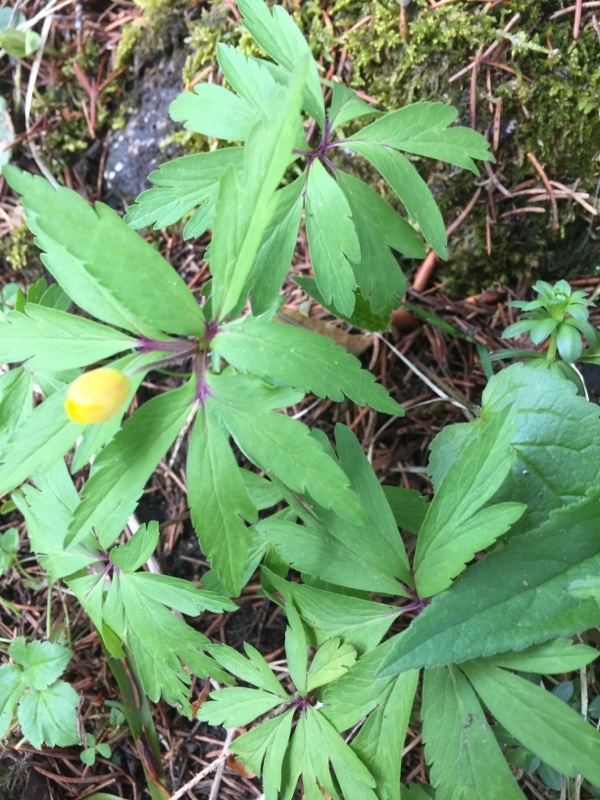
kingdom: Plantae
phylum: Tracheophyta
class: Magnoliopsida
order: Ranunculales
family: Ranunculaceae
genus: Anemone
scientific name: Anemone ranunculoides
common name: Yellow anemone
